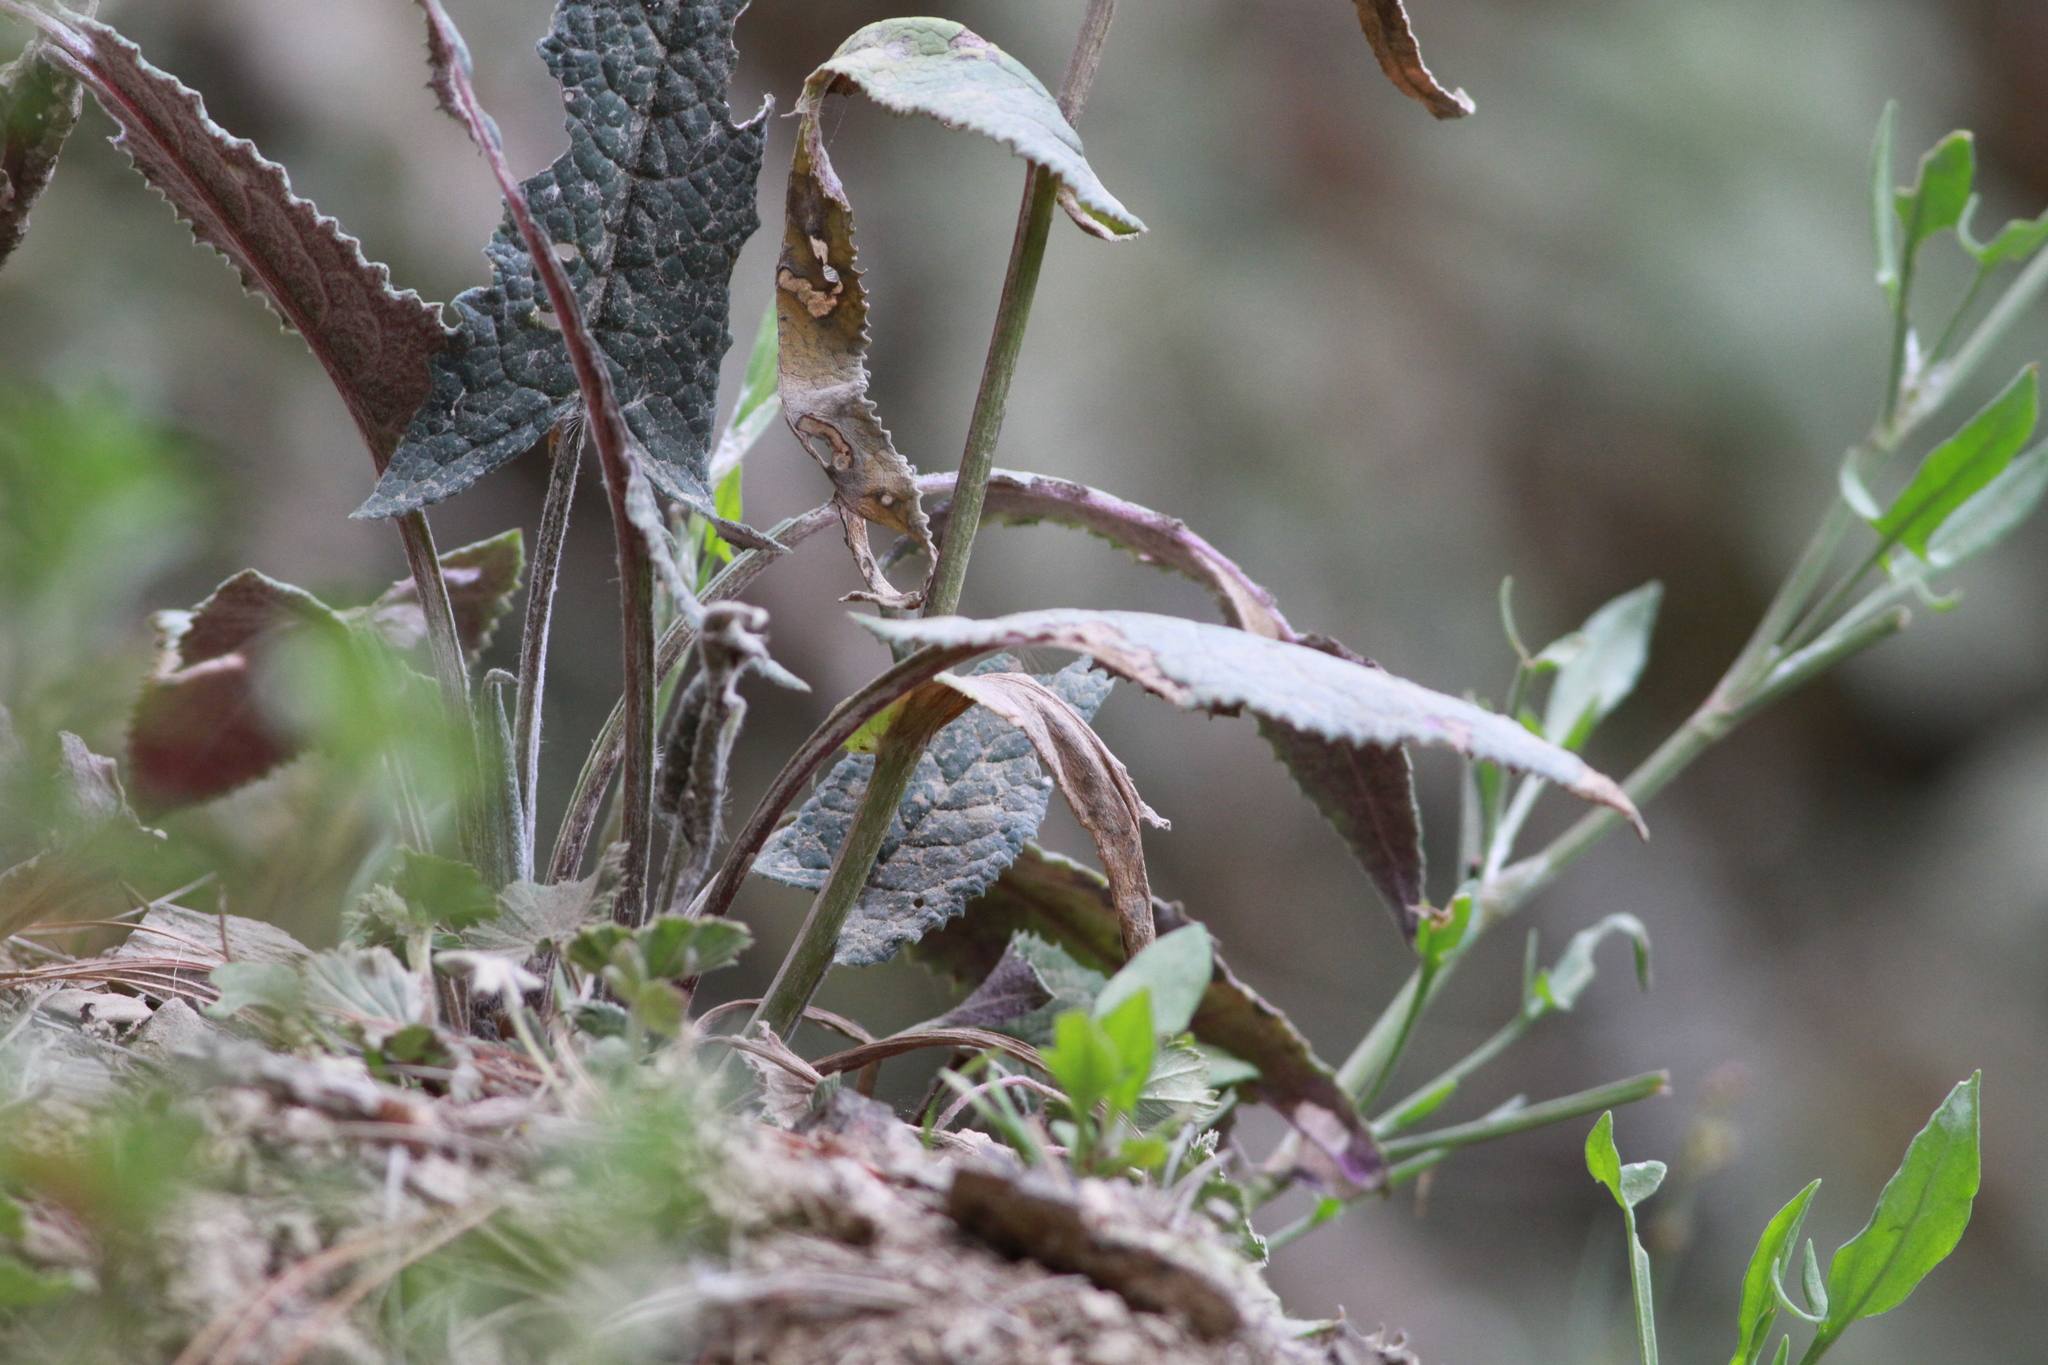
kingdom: Plantae
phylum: Tracheophyta
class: Magnoliopsida
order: Asterales
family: Asteraceae
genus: Senecio
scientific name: Senecio callosus
